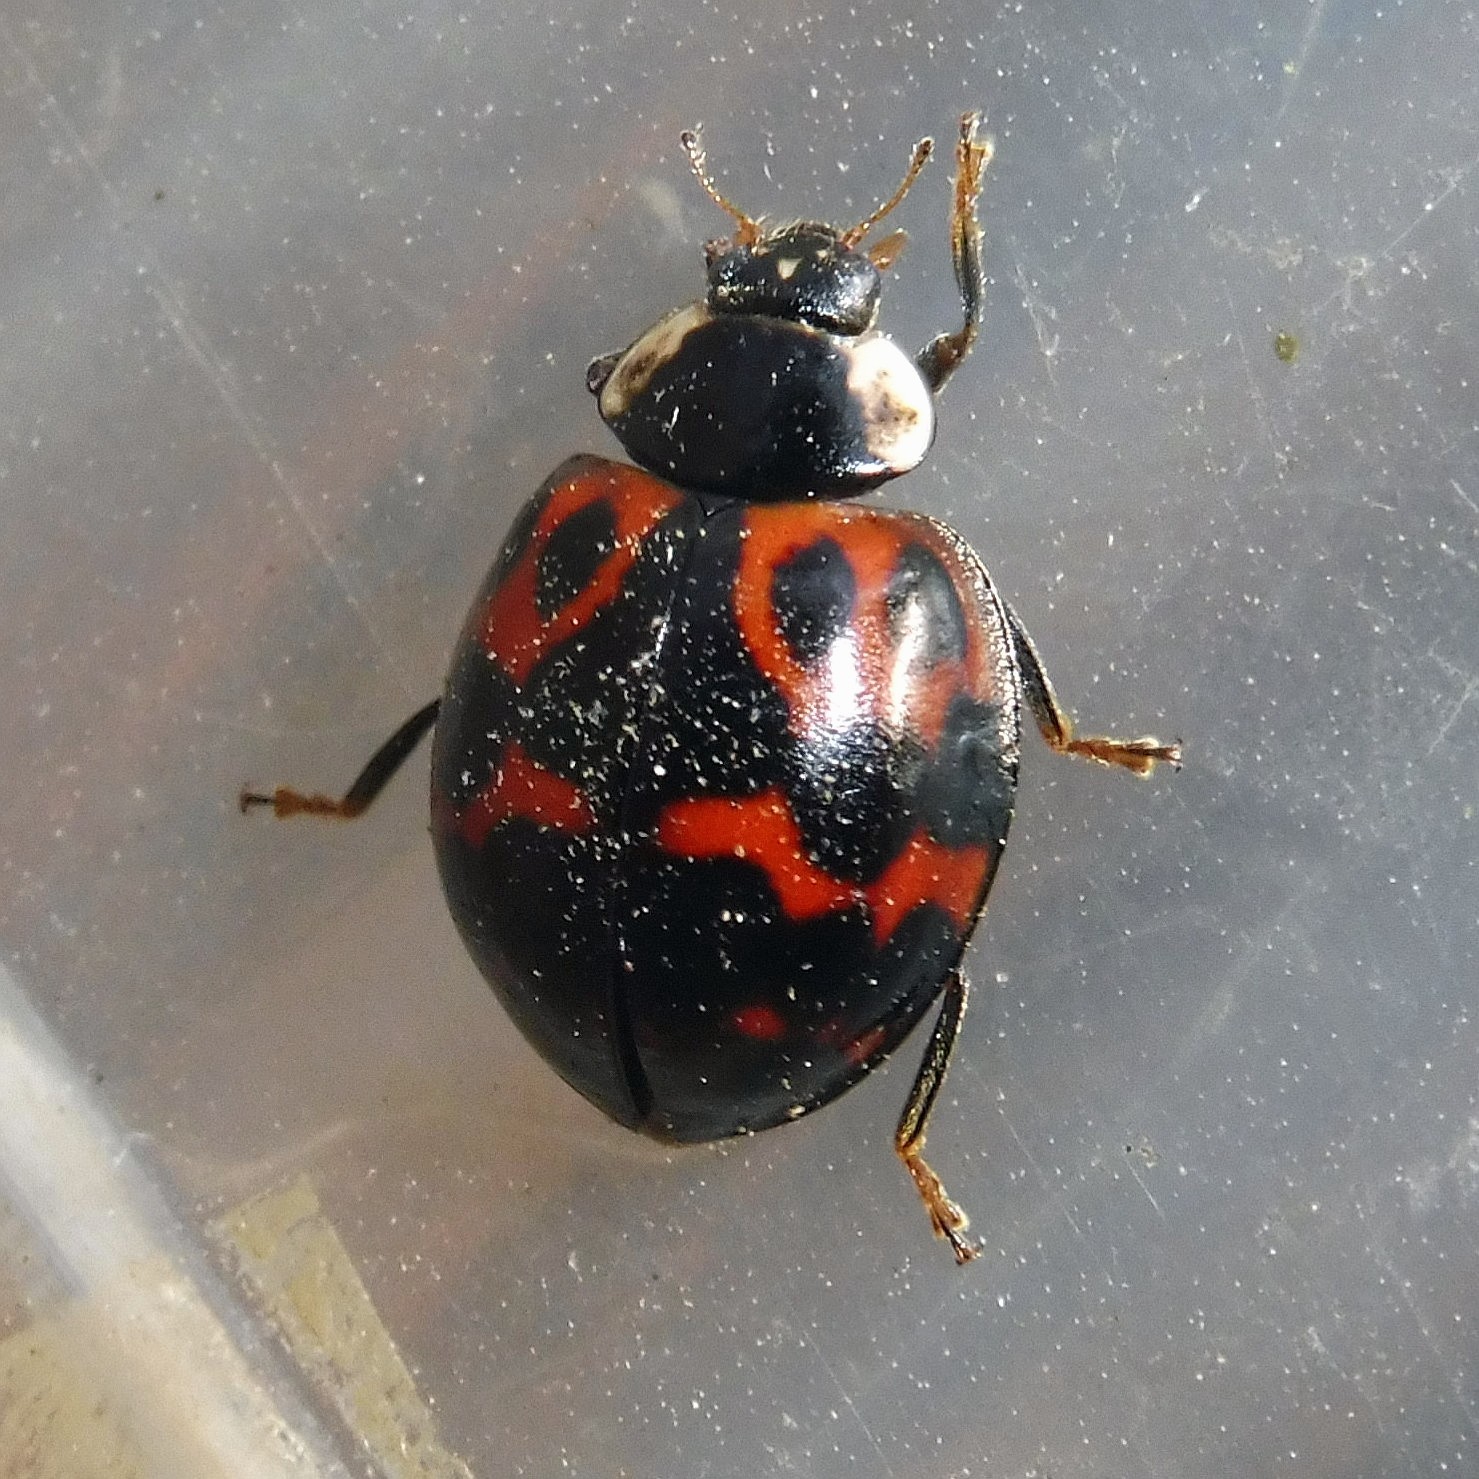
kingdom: Animalia
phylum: Arthropoda
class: Insecta
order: Coleoptera
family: Coccinellidae
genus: Harmonia
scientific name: Harmonia axyridis
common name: Harlequin ladybird
